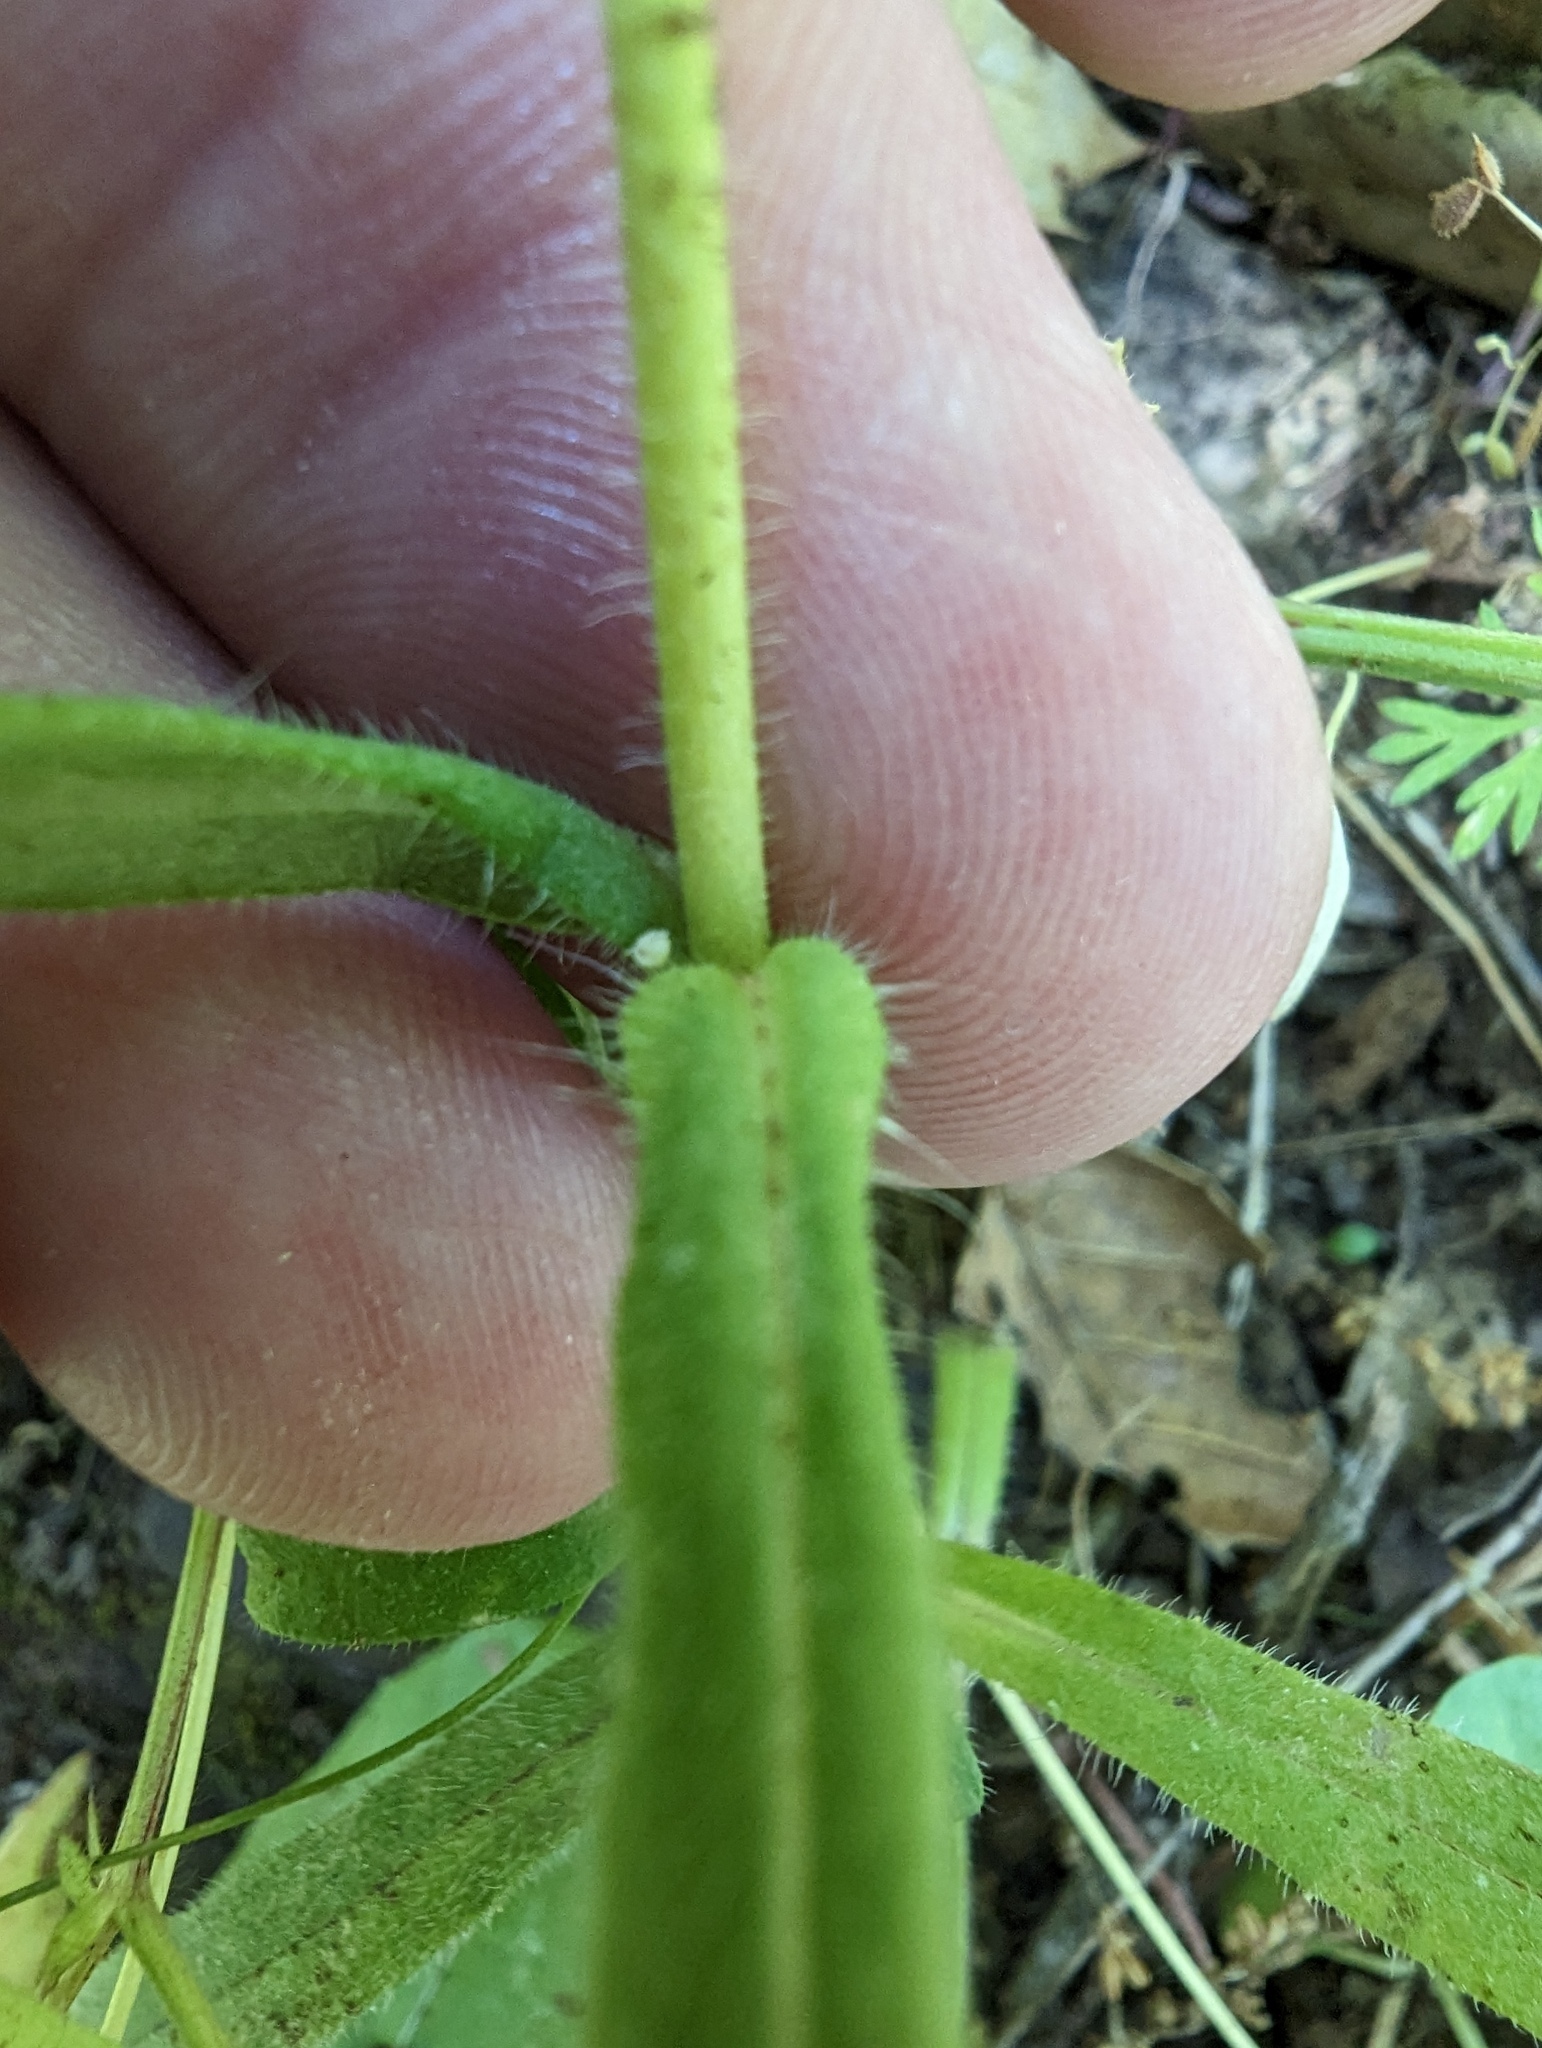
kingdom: Plantae
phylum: Tracheophyta
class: Magnoliopsida
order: Asterales
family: Asteraceae
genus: Madia
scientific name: Madia gracilis
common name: Grassy tarweed
